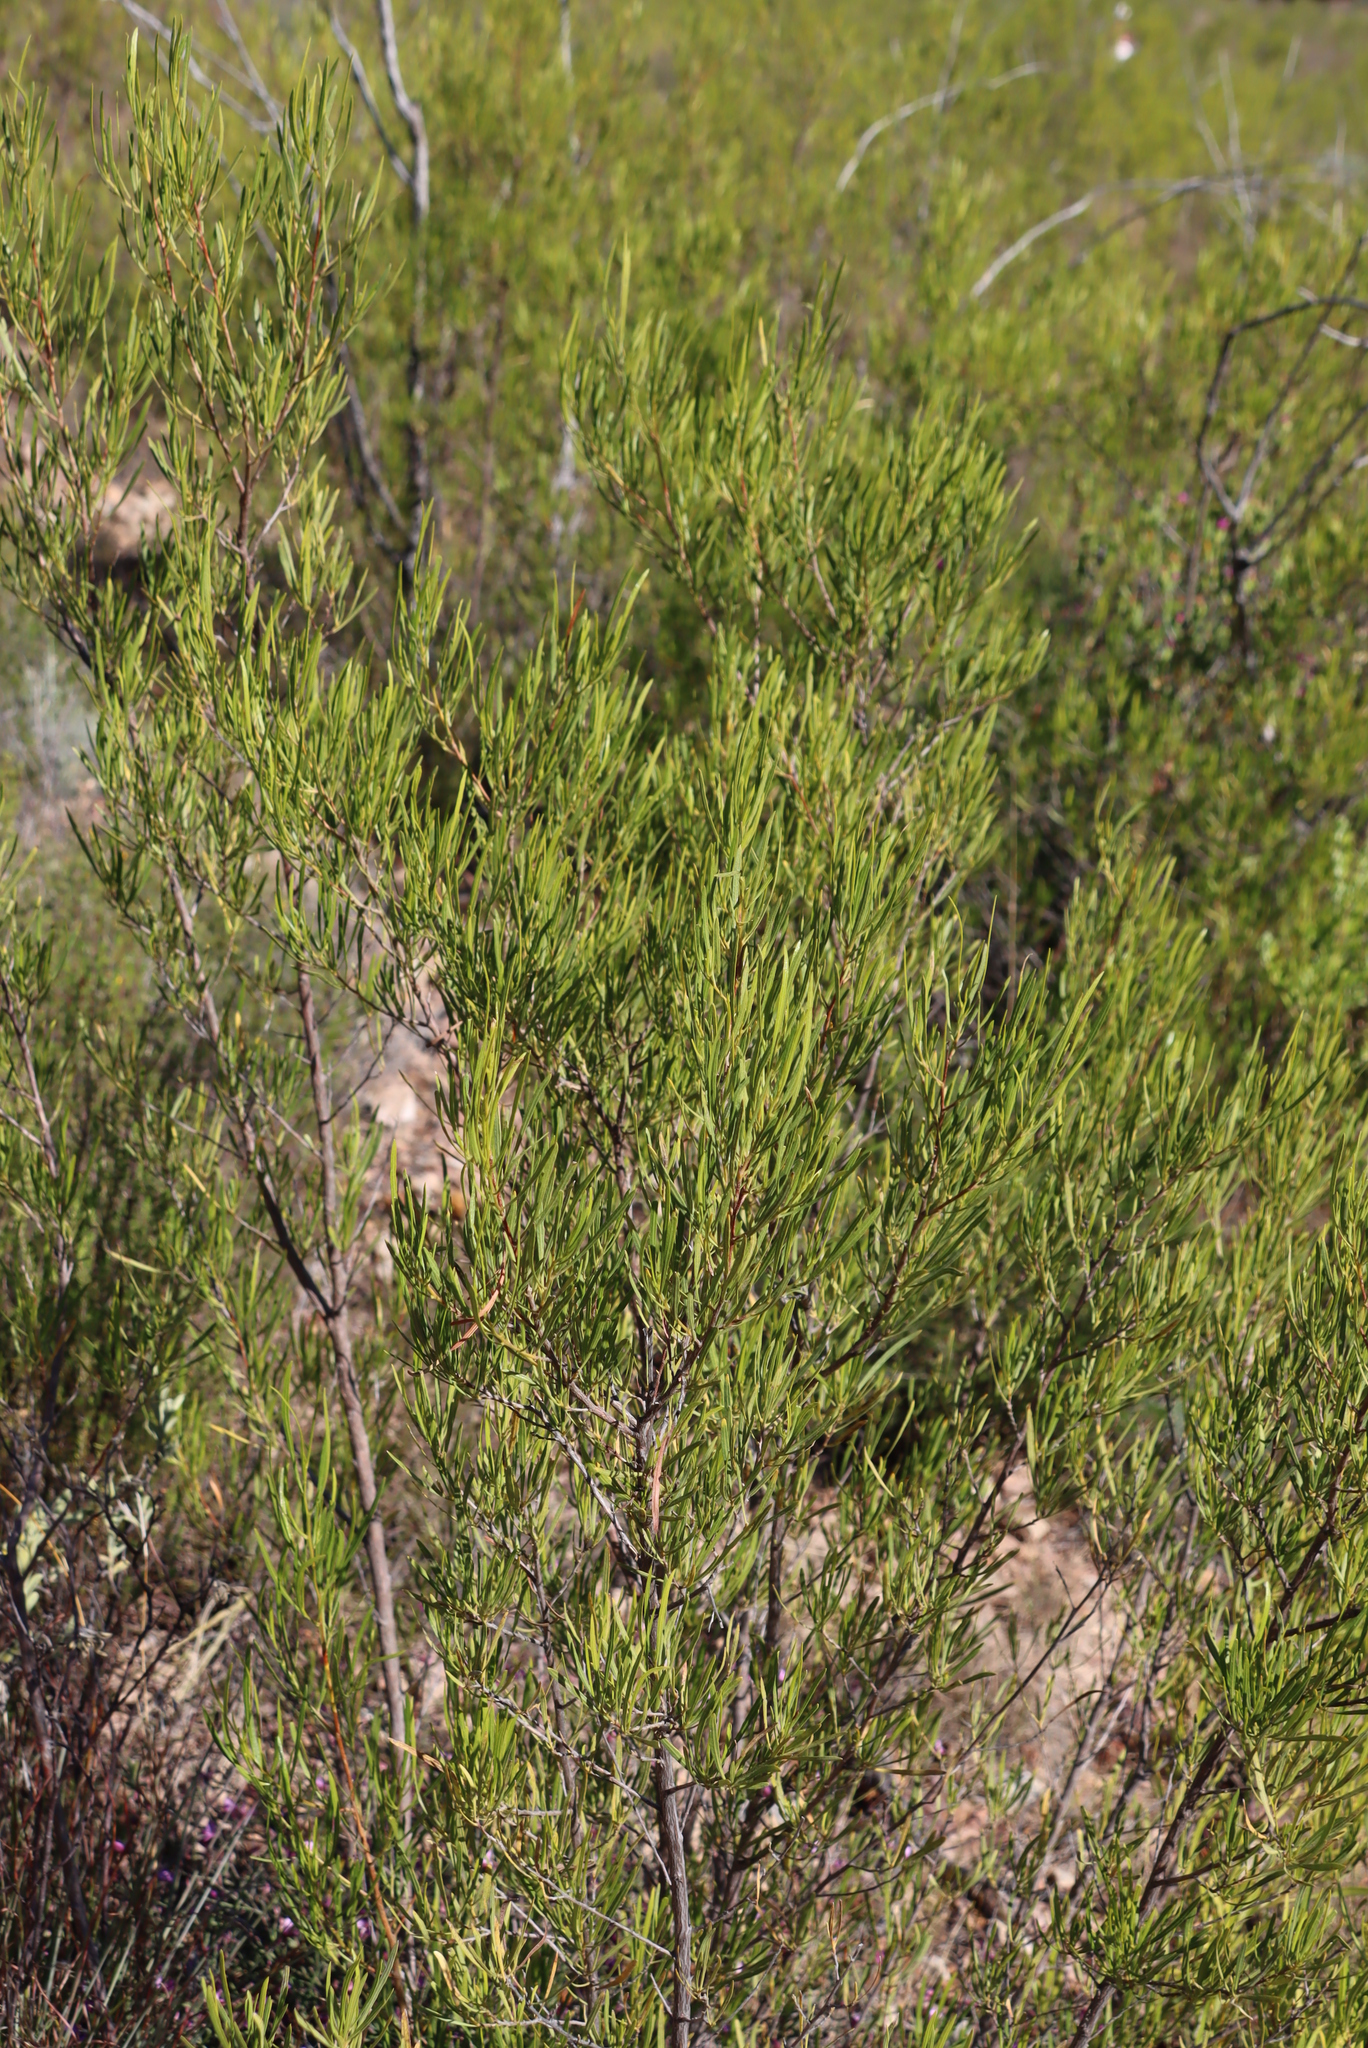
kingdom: Plantae
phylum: Tracheophyta
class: Magnoliopsida
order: Sapindales
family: Sapindaceae
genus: Dodonaea
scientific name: Dodonaea viscosa
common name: Hopbush
